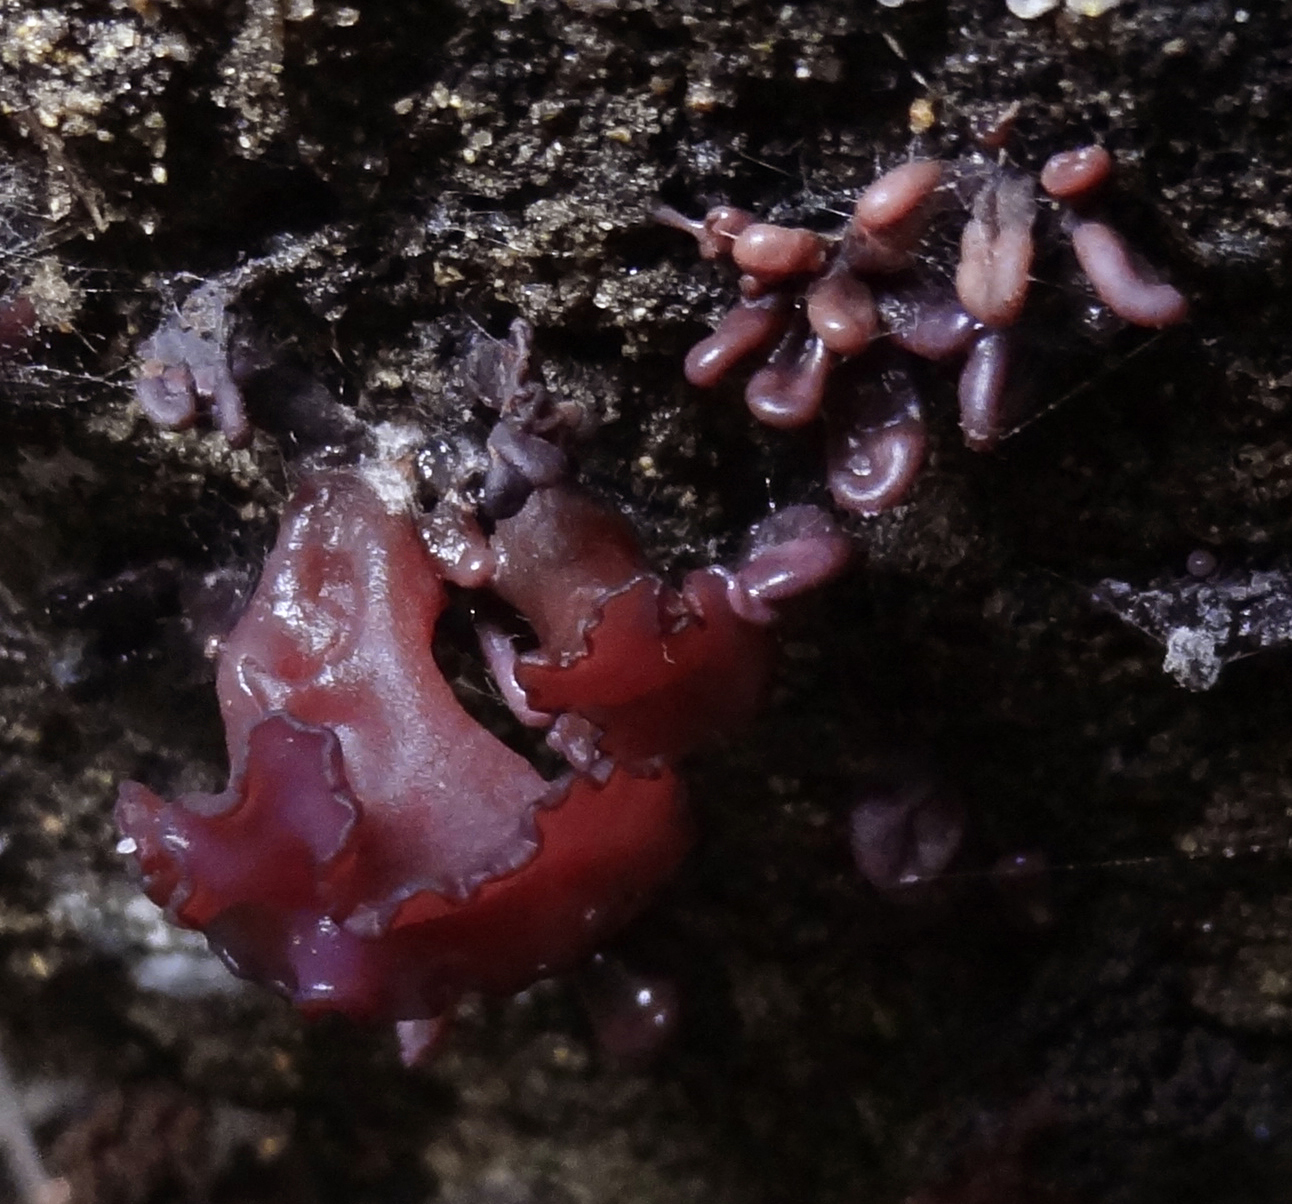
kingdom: Fungi
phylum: Ascomycota
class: Leotiomycetes
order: Helotiales
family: Gelatinodiscaceae
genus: Ascocoryne
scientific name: Ascocoryne sarcoides
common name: Purple jellydisc
